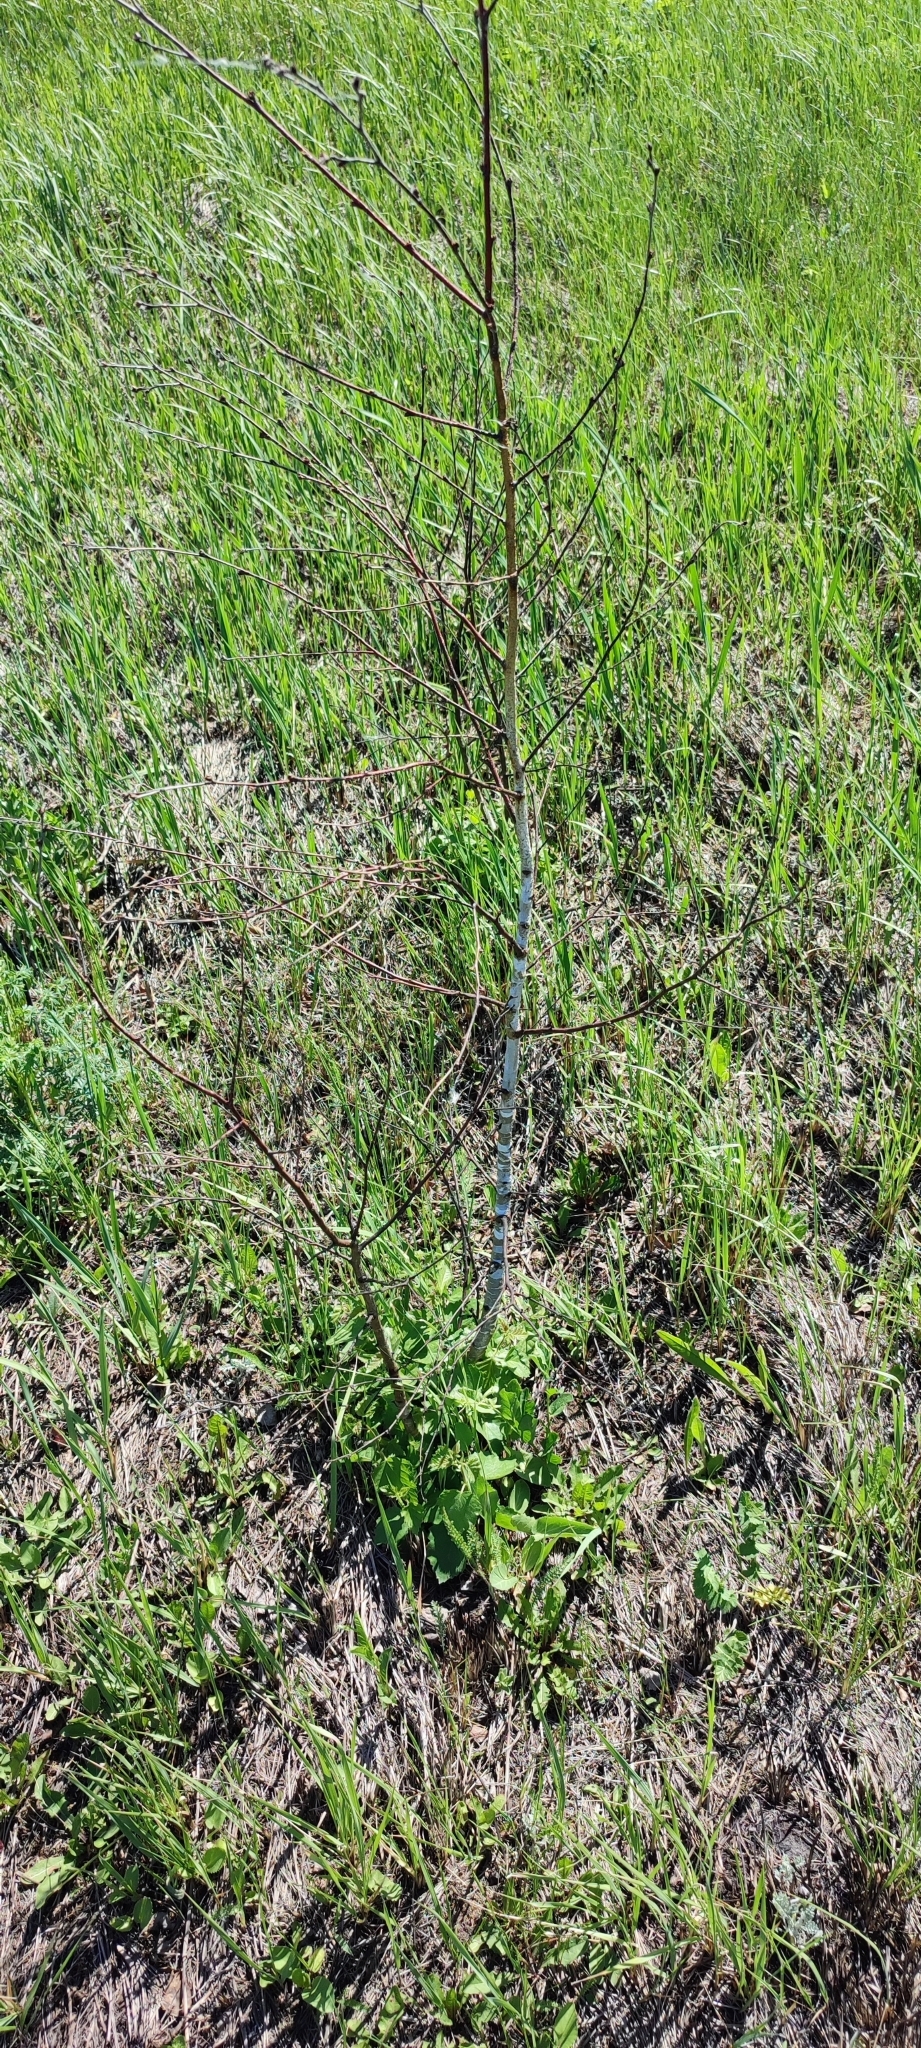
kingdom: Plantae
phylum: Tracheophyta
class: Magnoliopsida
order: Fagales
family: Betulaceae
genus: Betula
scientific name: Betula pendula
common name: Silver birch
